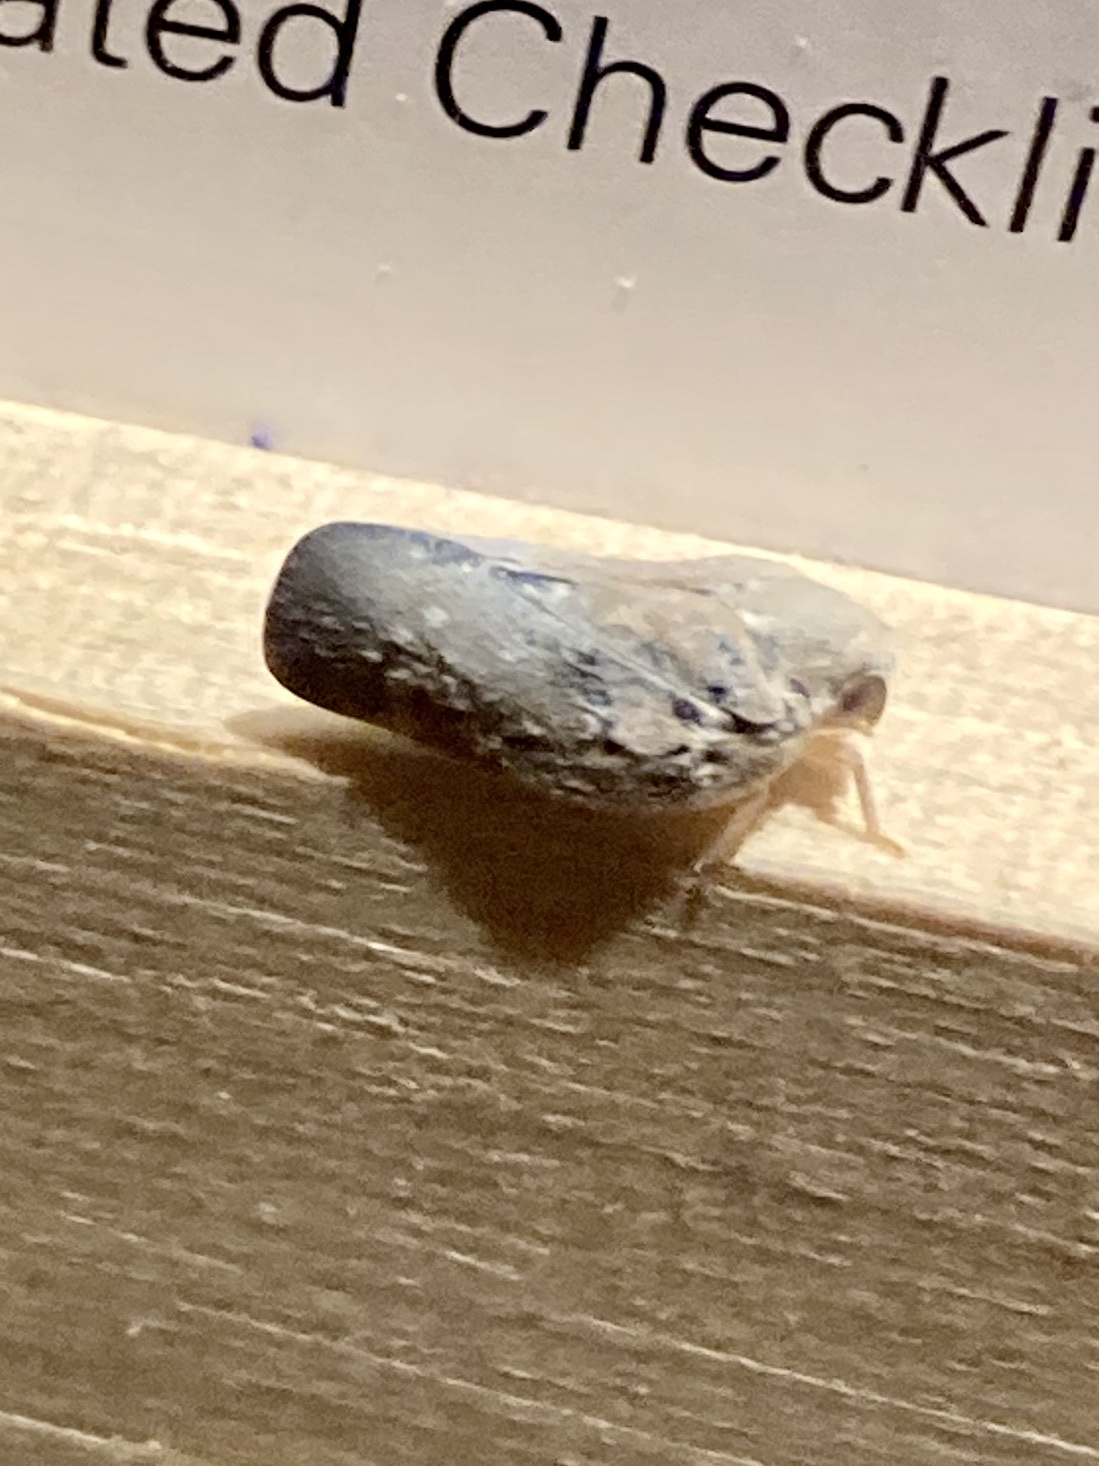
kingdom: Animalia
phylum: Arthropoda
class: Insecta
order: Hemiptera
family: Flatidae
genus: Metcalfa
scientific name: Metcalfa pruinosa
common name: Citrus flatid planthopper
